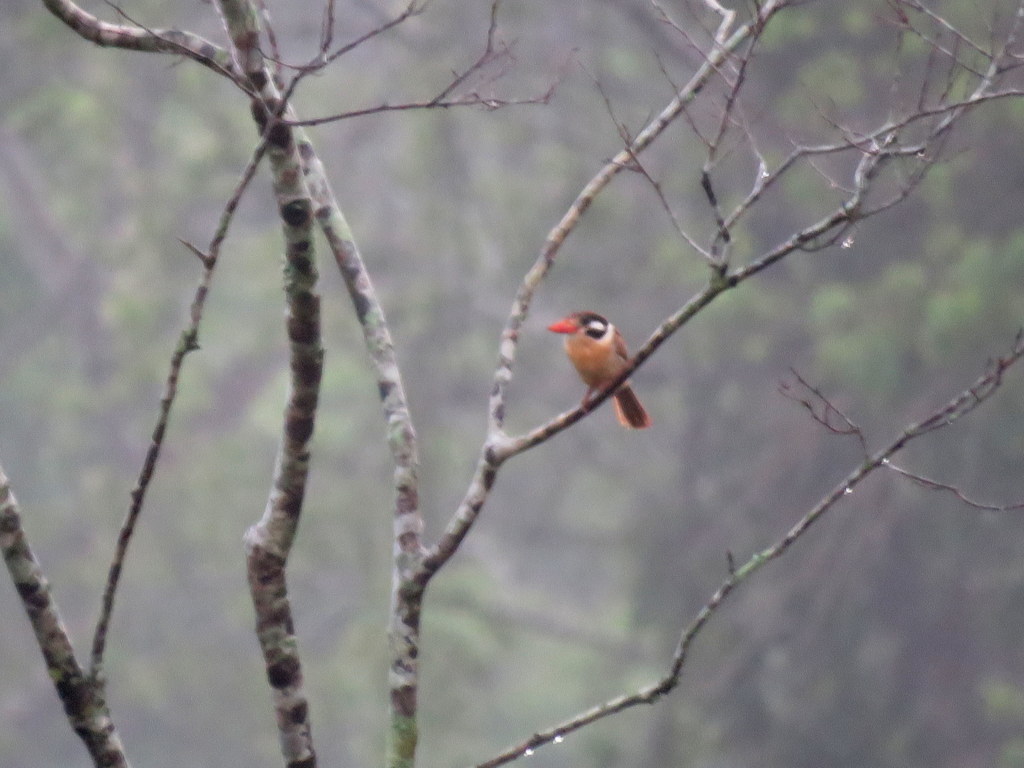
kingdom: Animalia
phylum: Chordata
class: Aves
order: Piciformes
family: Bucconidae
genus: Nystalus
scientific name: Nystalus chacuru
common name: White-eared puffbird
